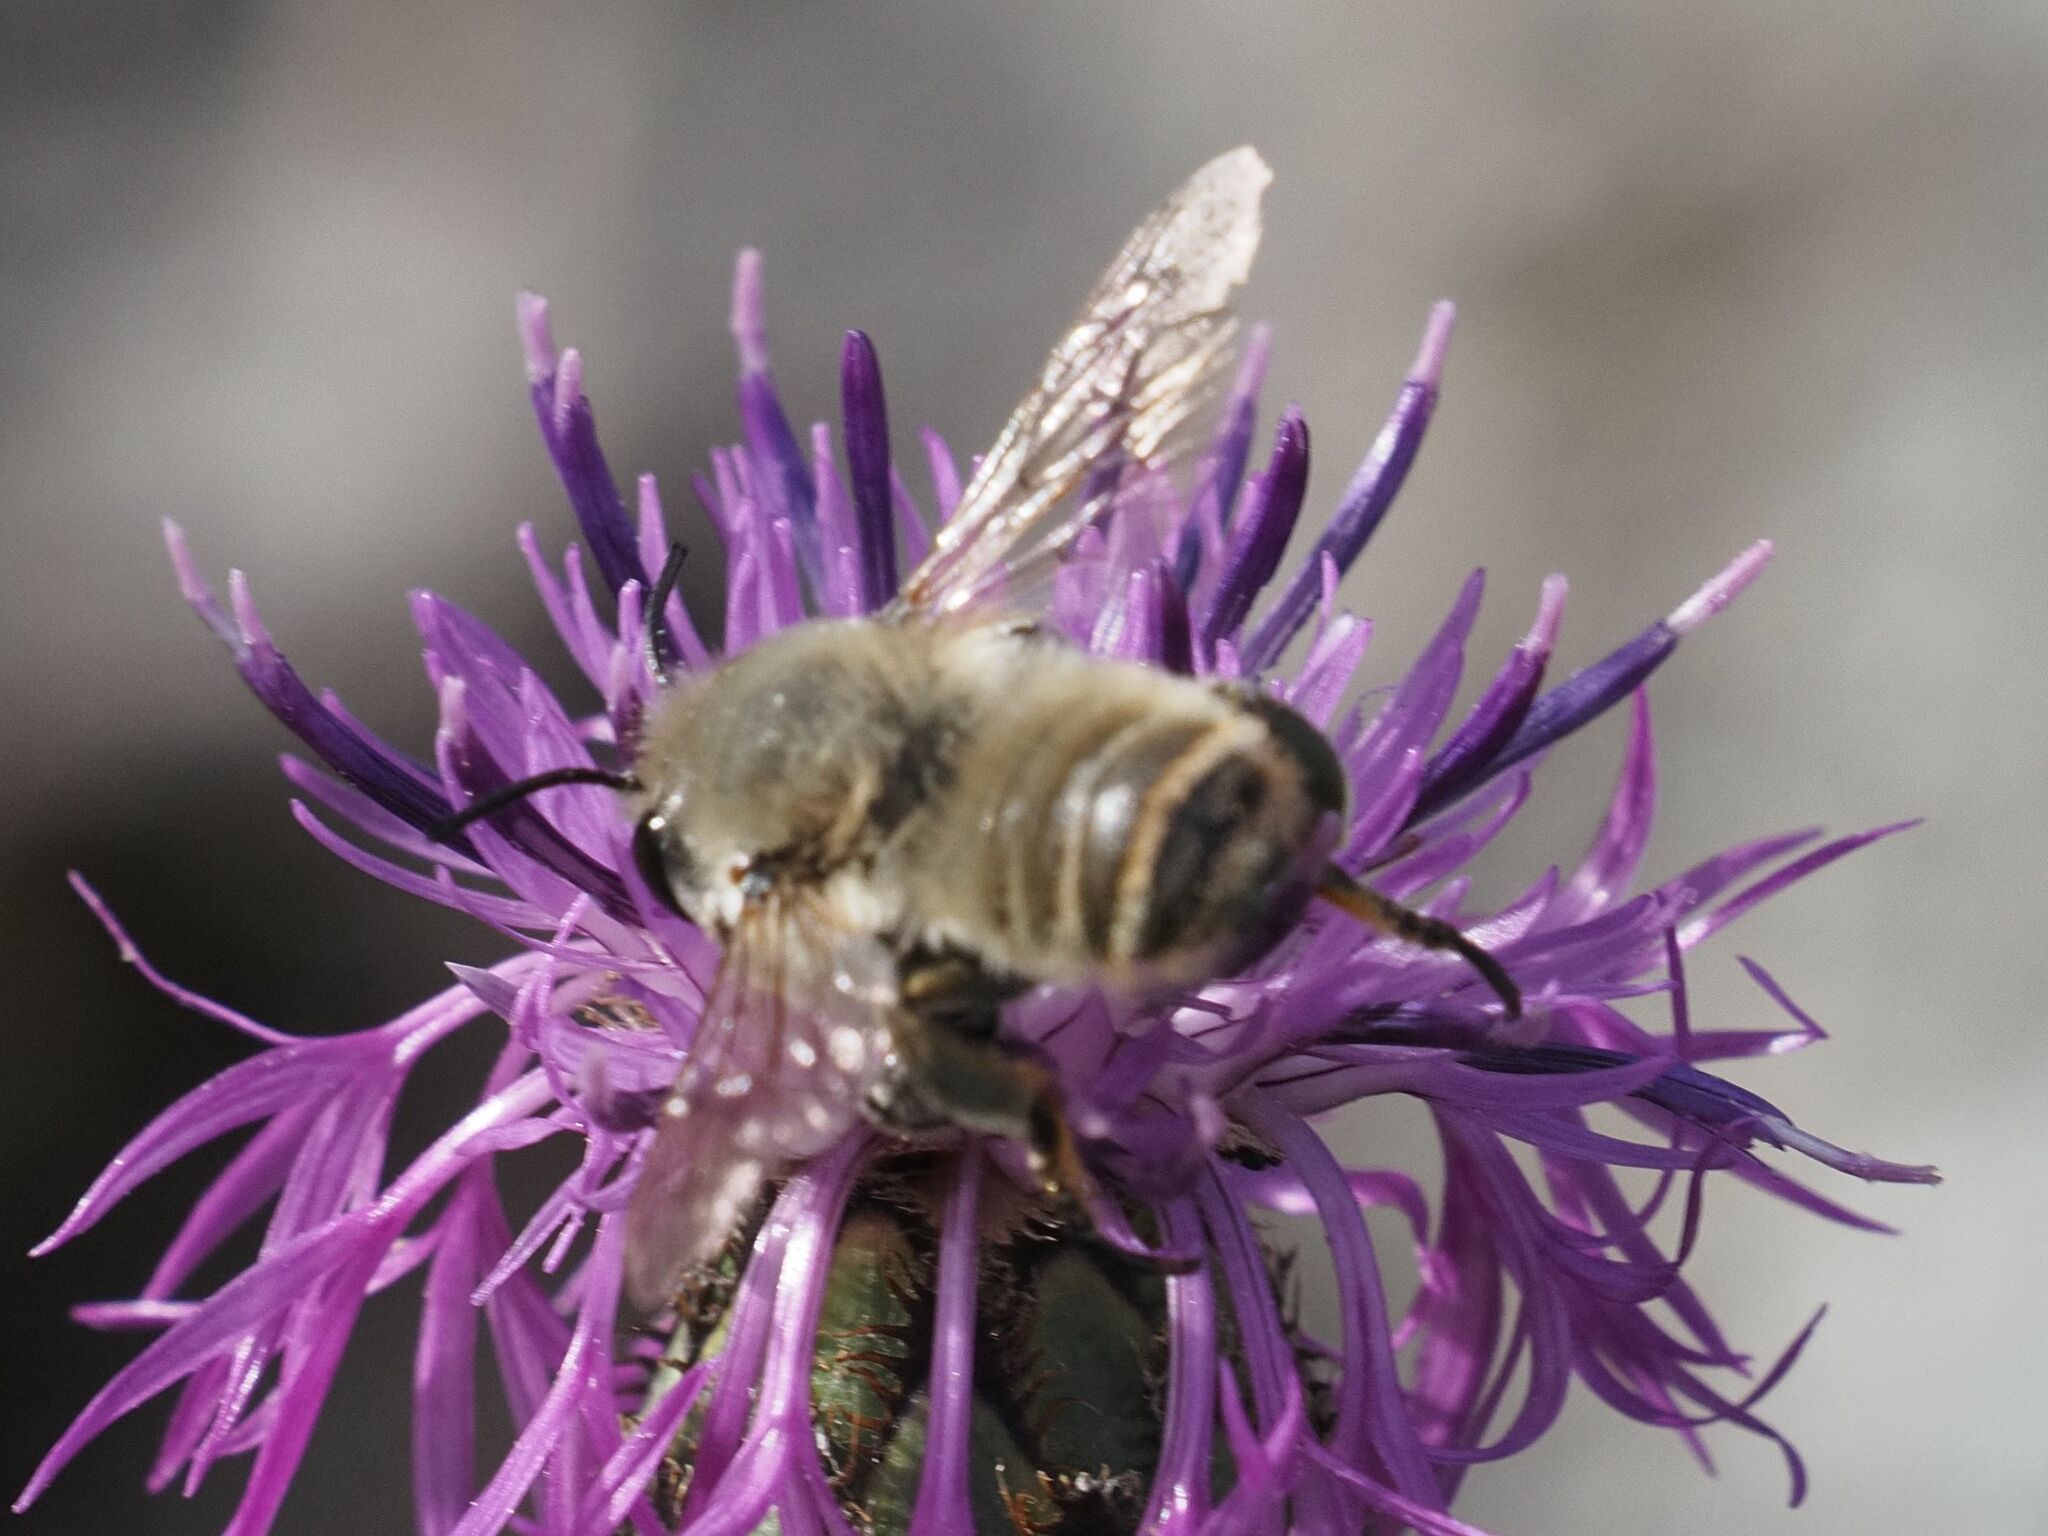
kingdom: Animalia
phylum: Arthropoda
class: Insecta
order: Hymenoptera
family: Megachilidae
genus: Megachile
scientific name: Megachile lagopoda
